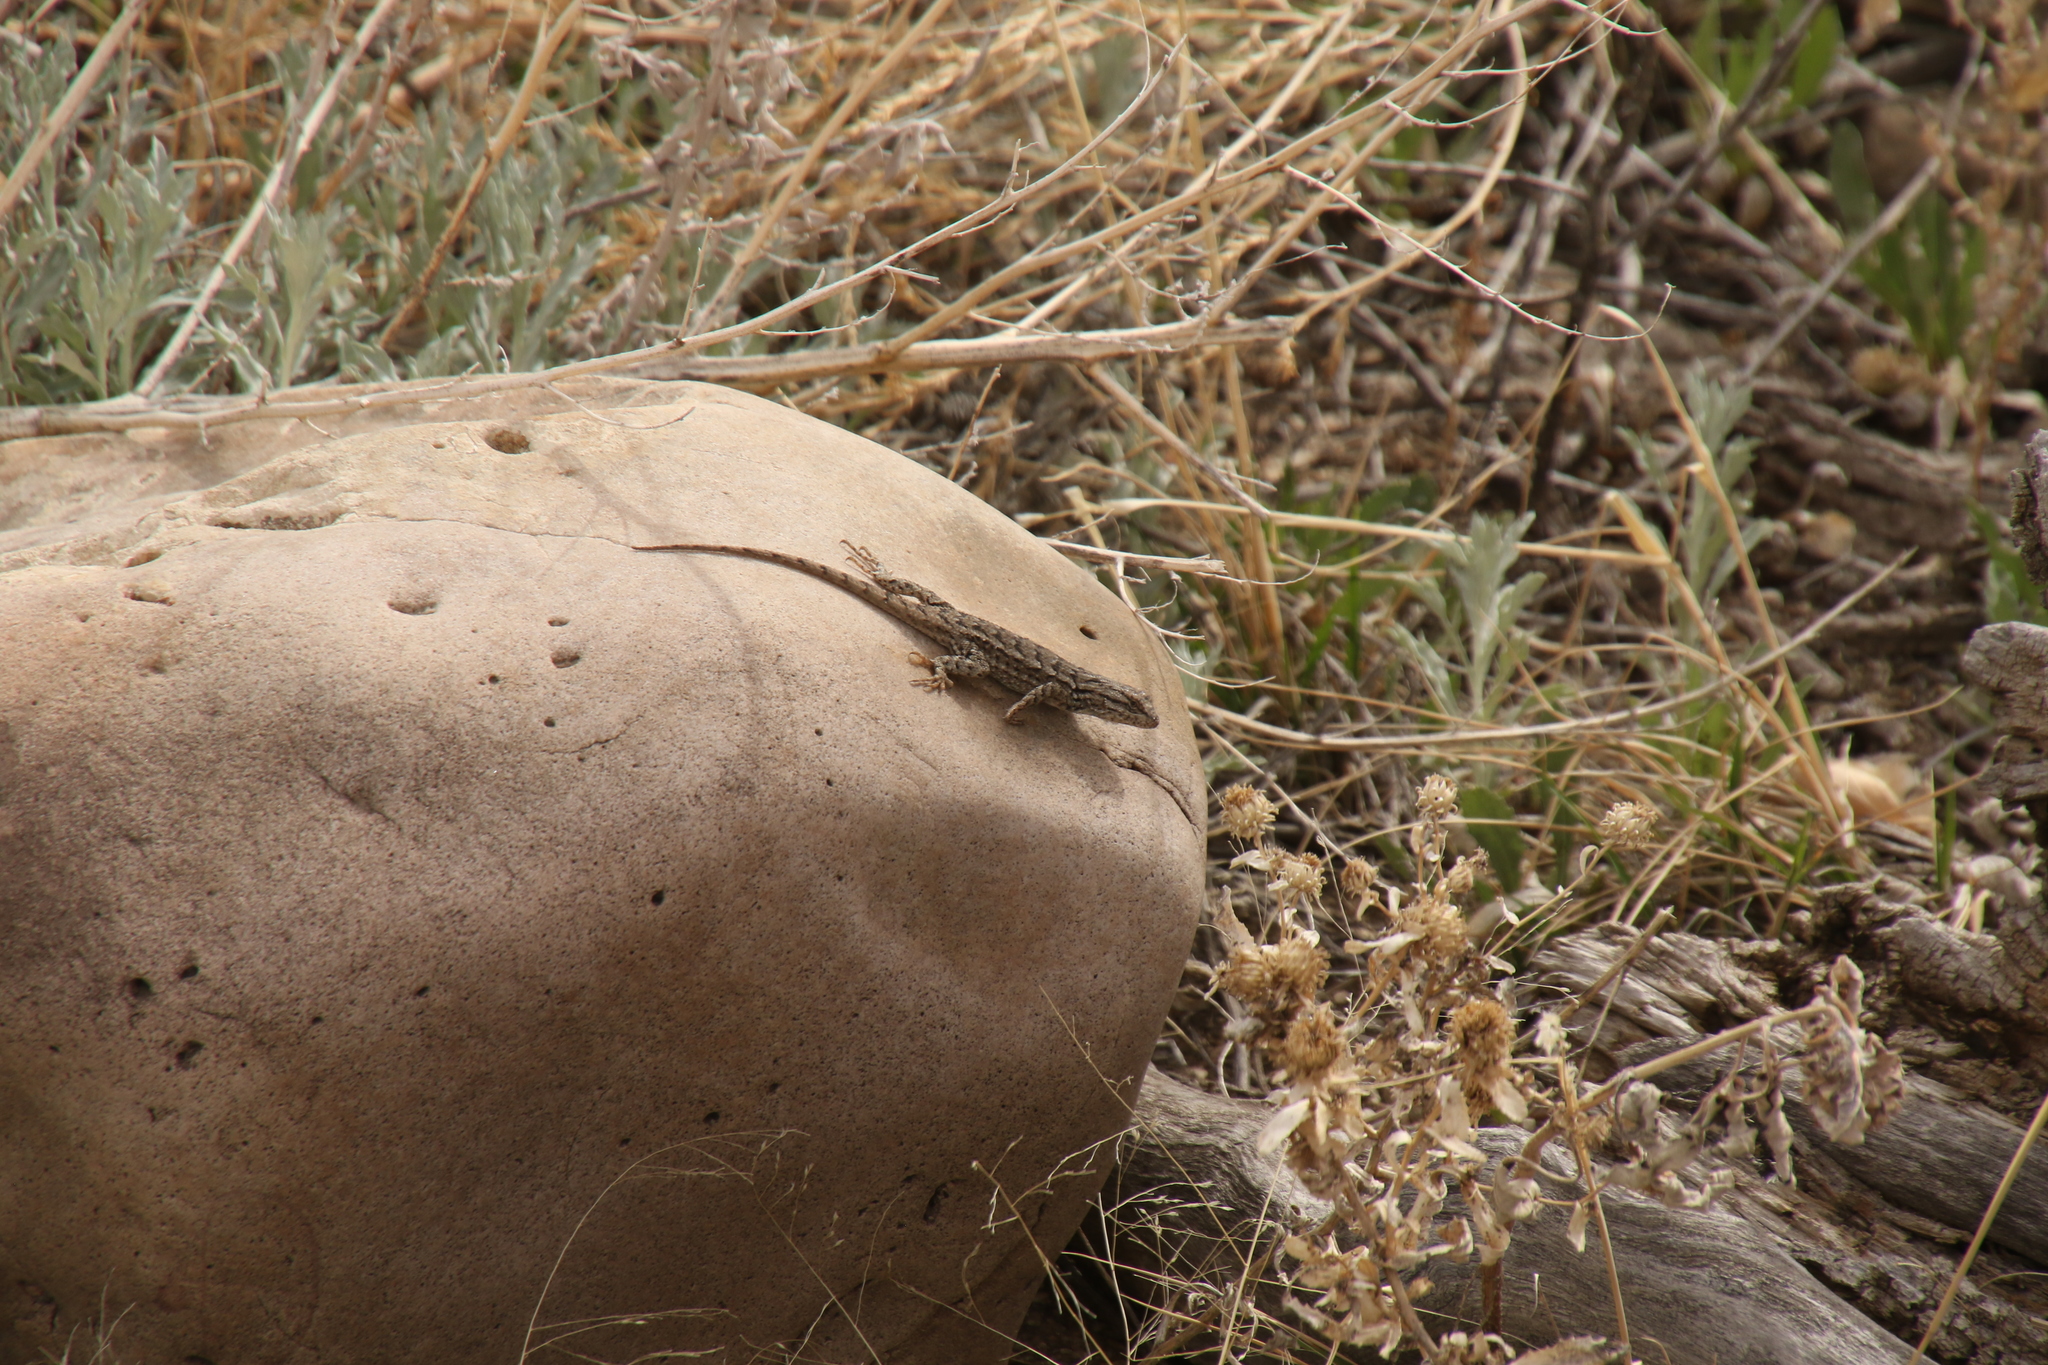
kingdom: Animalia
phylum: Chordata
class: Squamata
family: Phrynosomatidae
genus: Sceloporus
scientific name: Sceloporus consobrinus
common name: Southern prairie lizard
